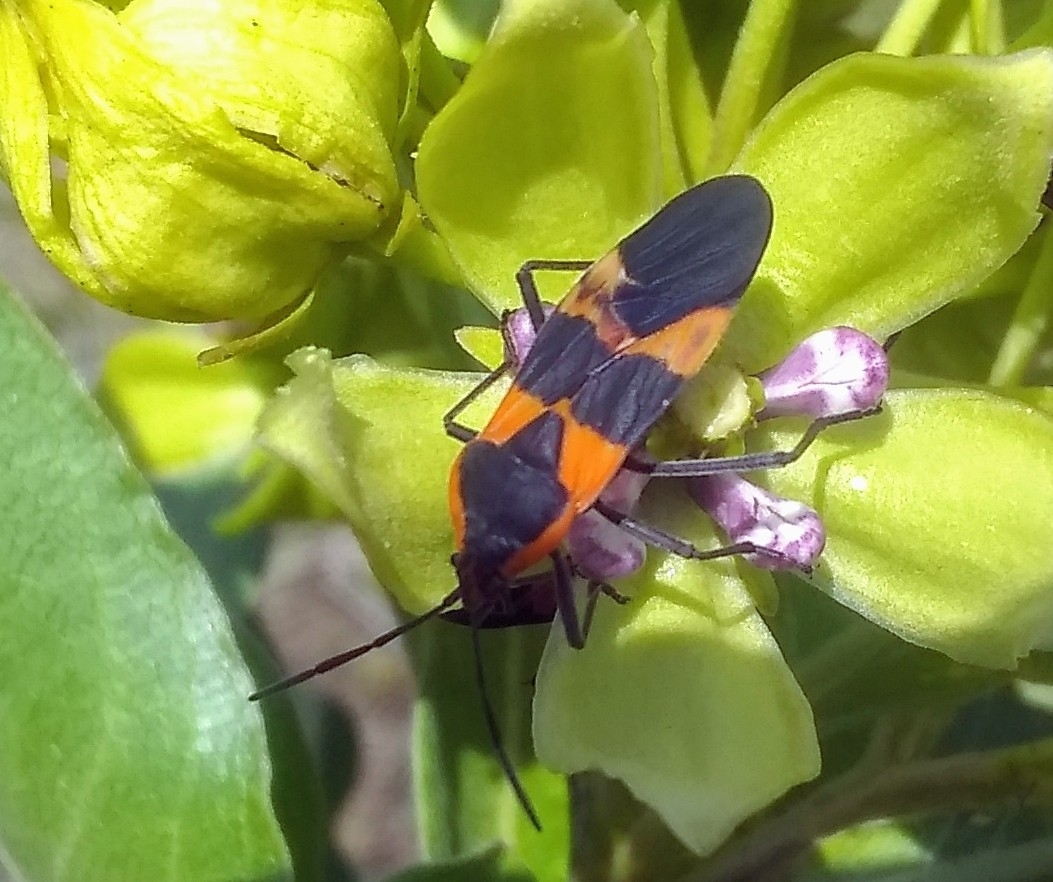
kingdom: Animalia
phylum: Arthropoda
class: Insecta
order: Hemiptera
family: Lygaeidae
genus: Oncopeltus
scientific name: Oncopeltus fasciatus
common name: Large milkweed bug
